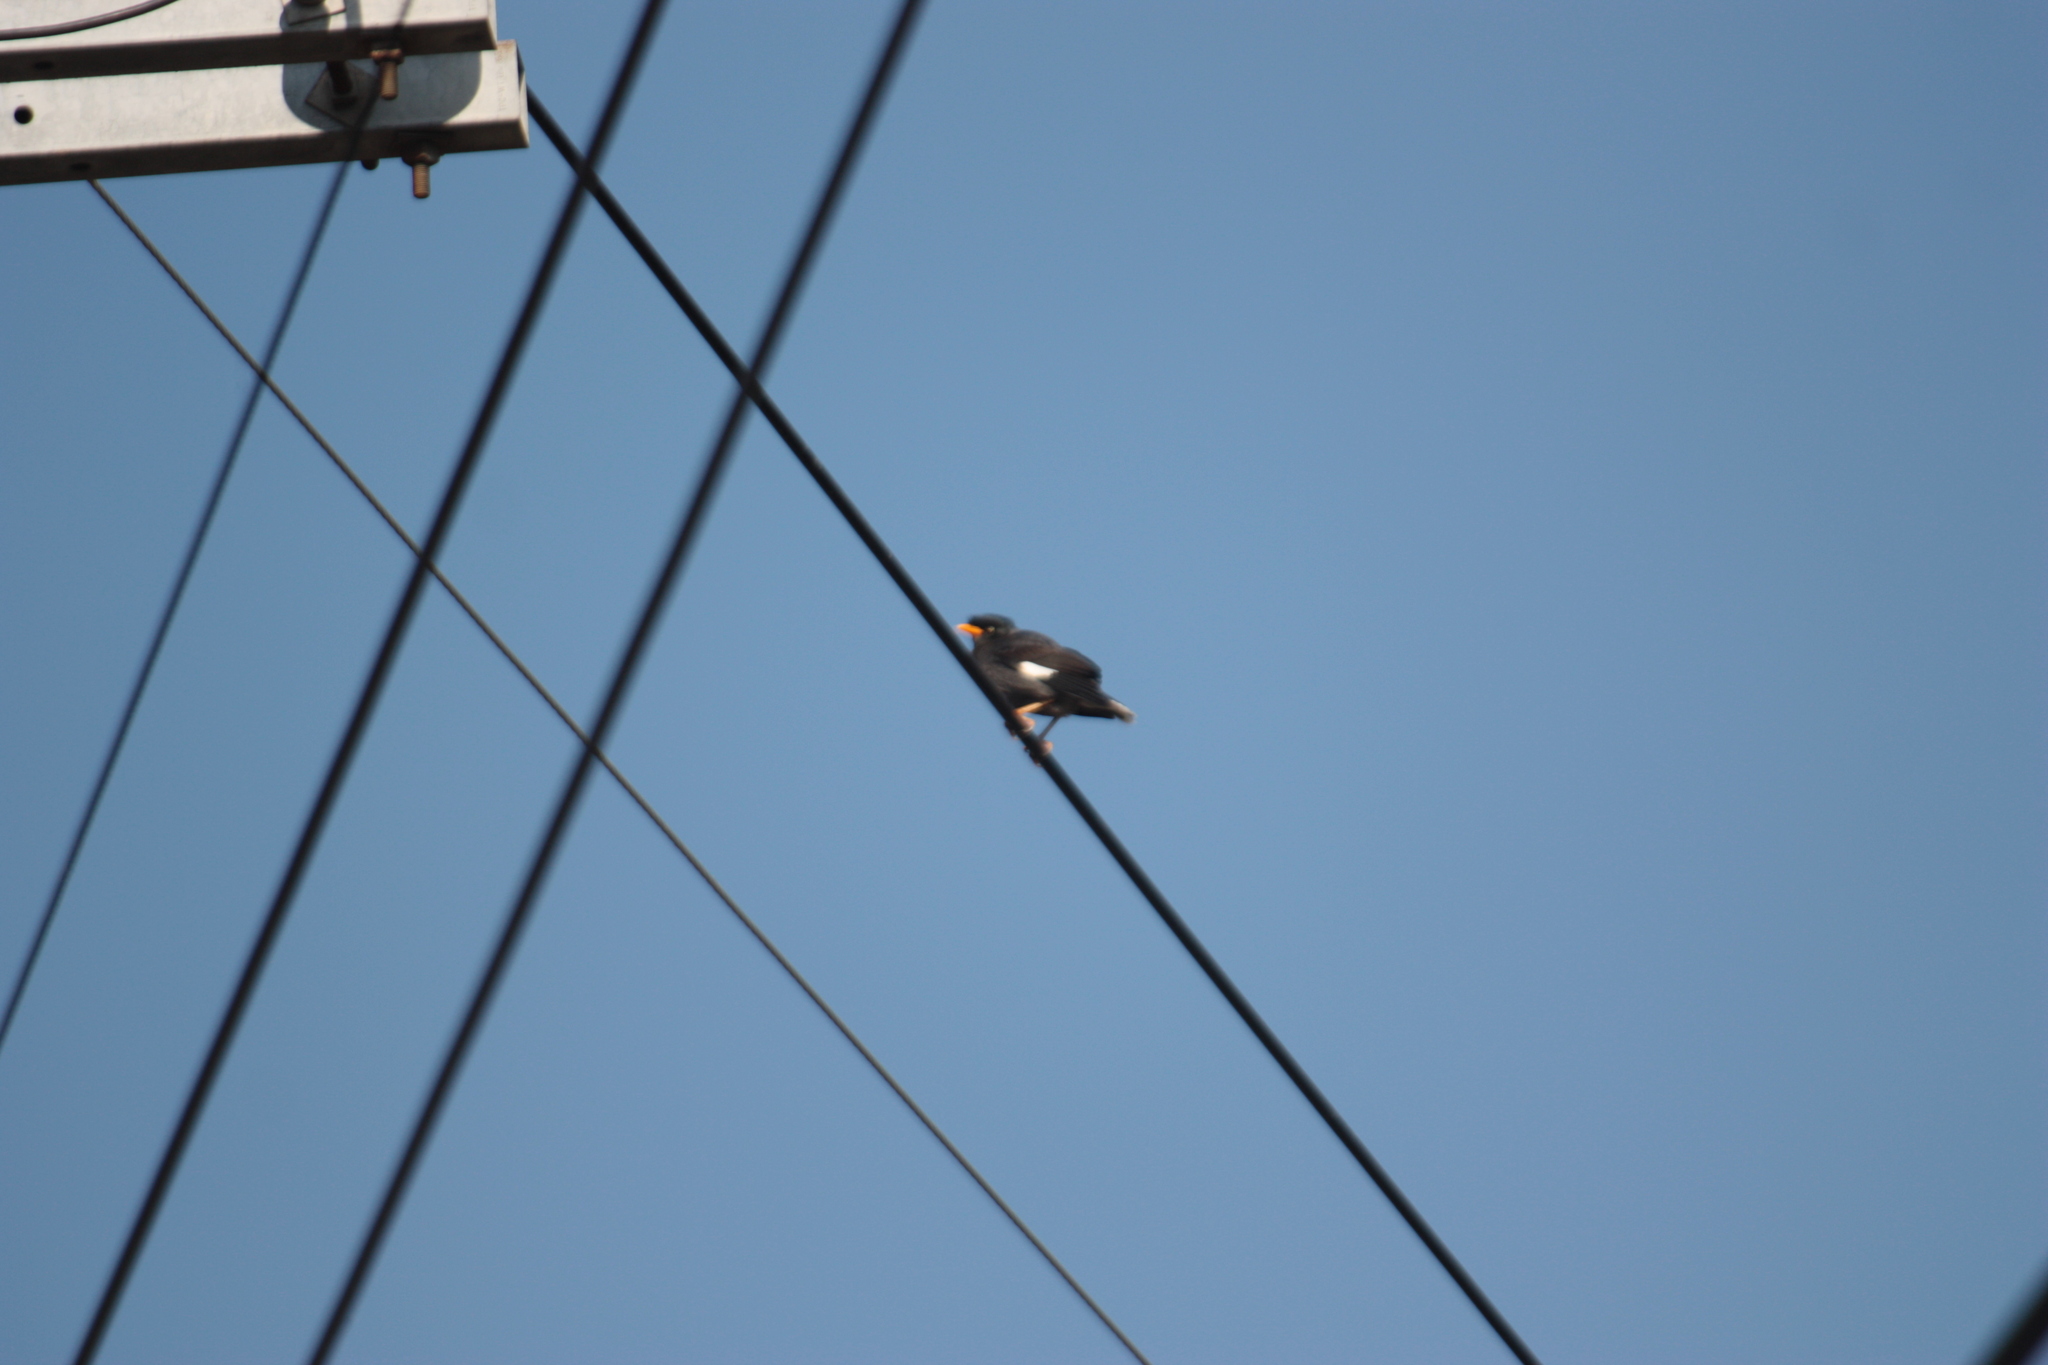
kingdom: Animalia
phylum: Chordata
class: Aves
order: Passeriformes
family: Sturnidae
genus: Acridotheres
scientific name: Acridotheres javanicus
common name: Javan myna
